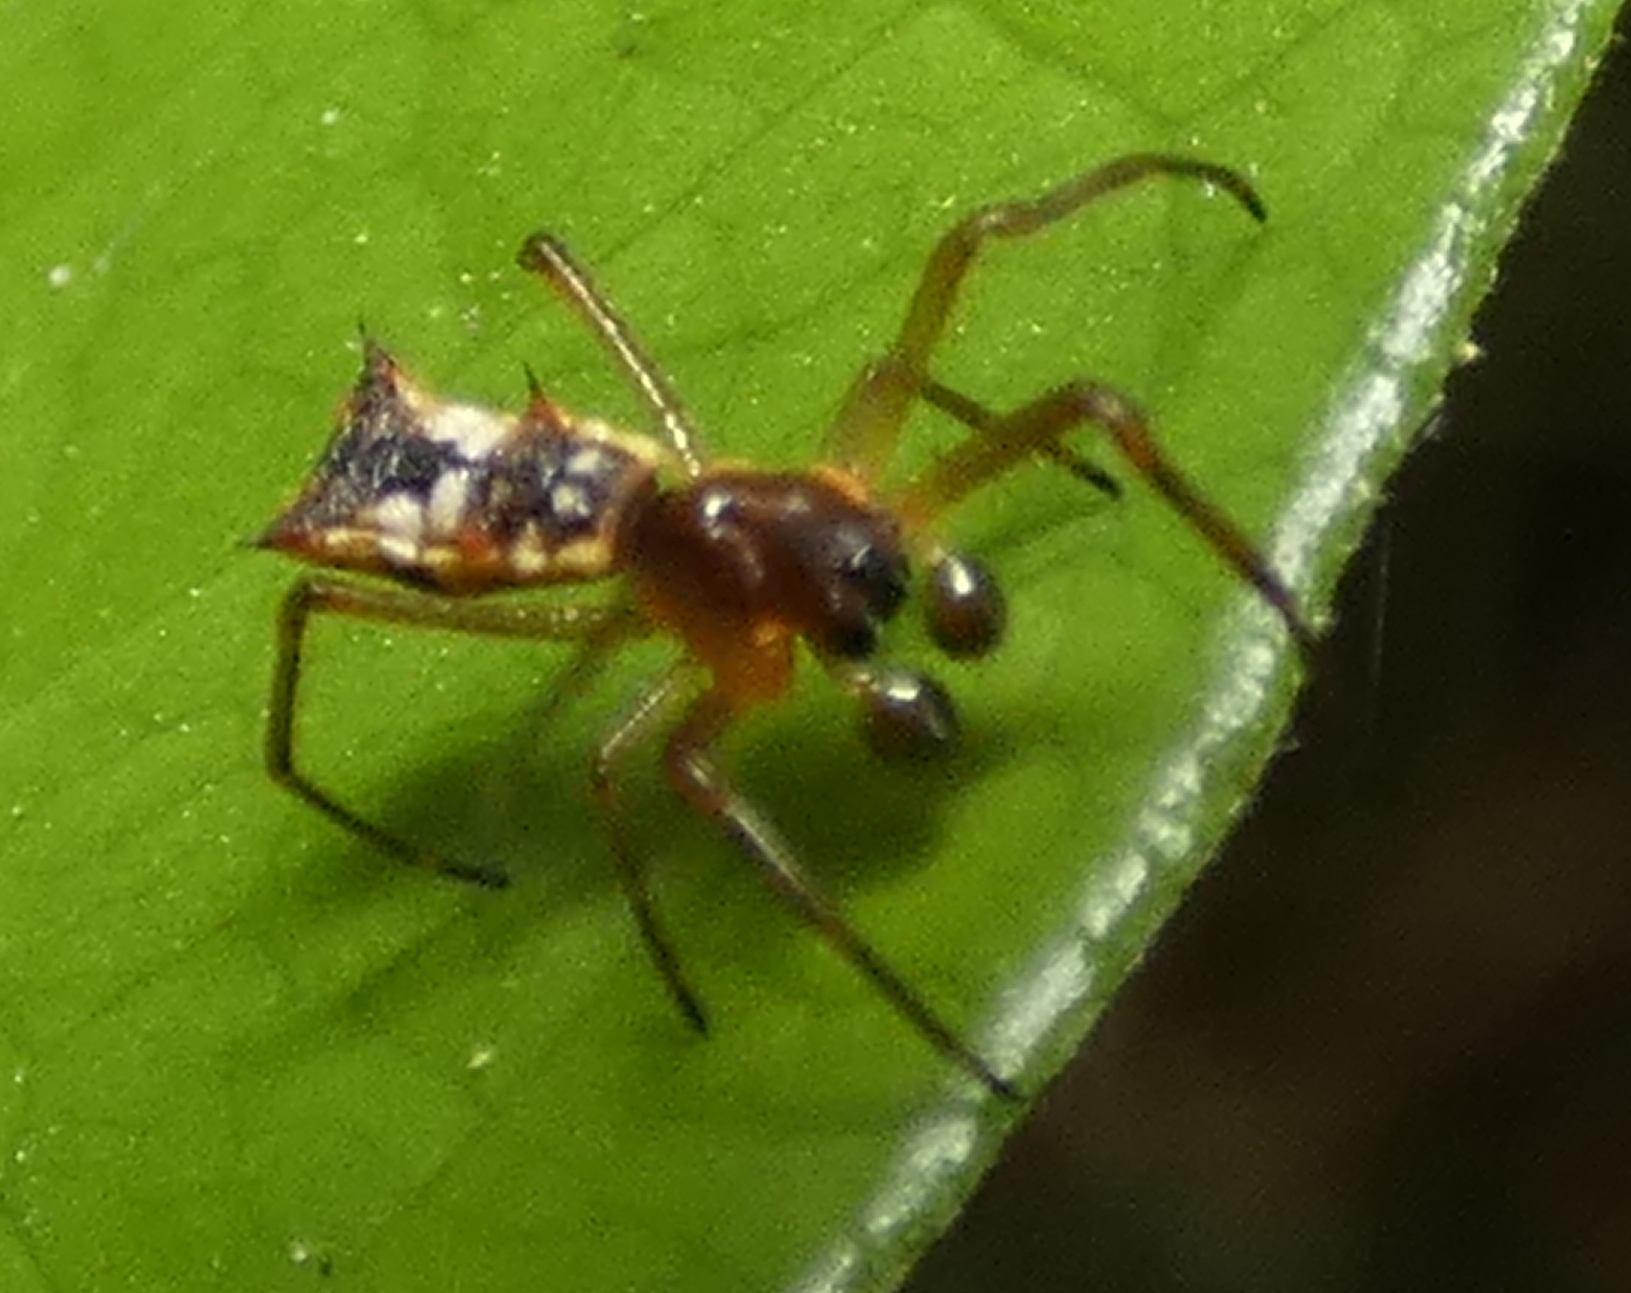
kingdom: Animalia
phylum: Arthropoda
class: Arachnida
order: Araneae
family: Araneidae
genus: Micrathena
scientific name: Micrathena fissispina
